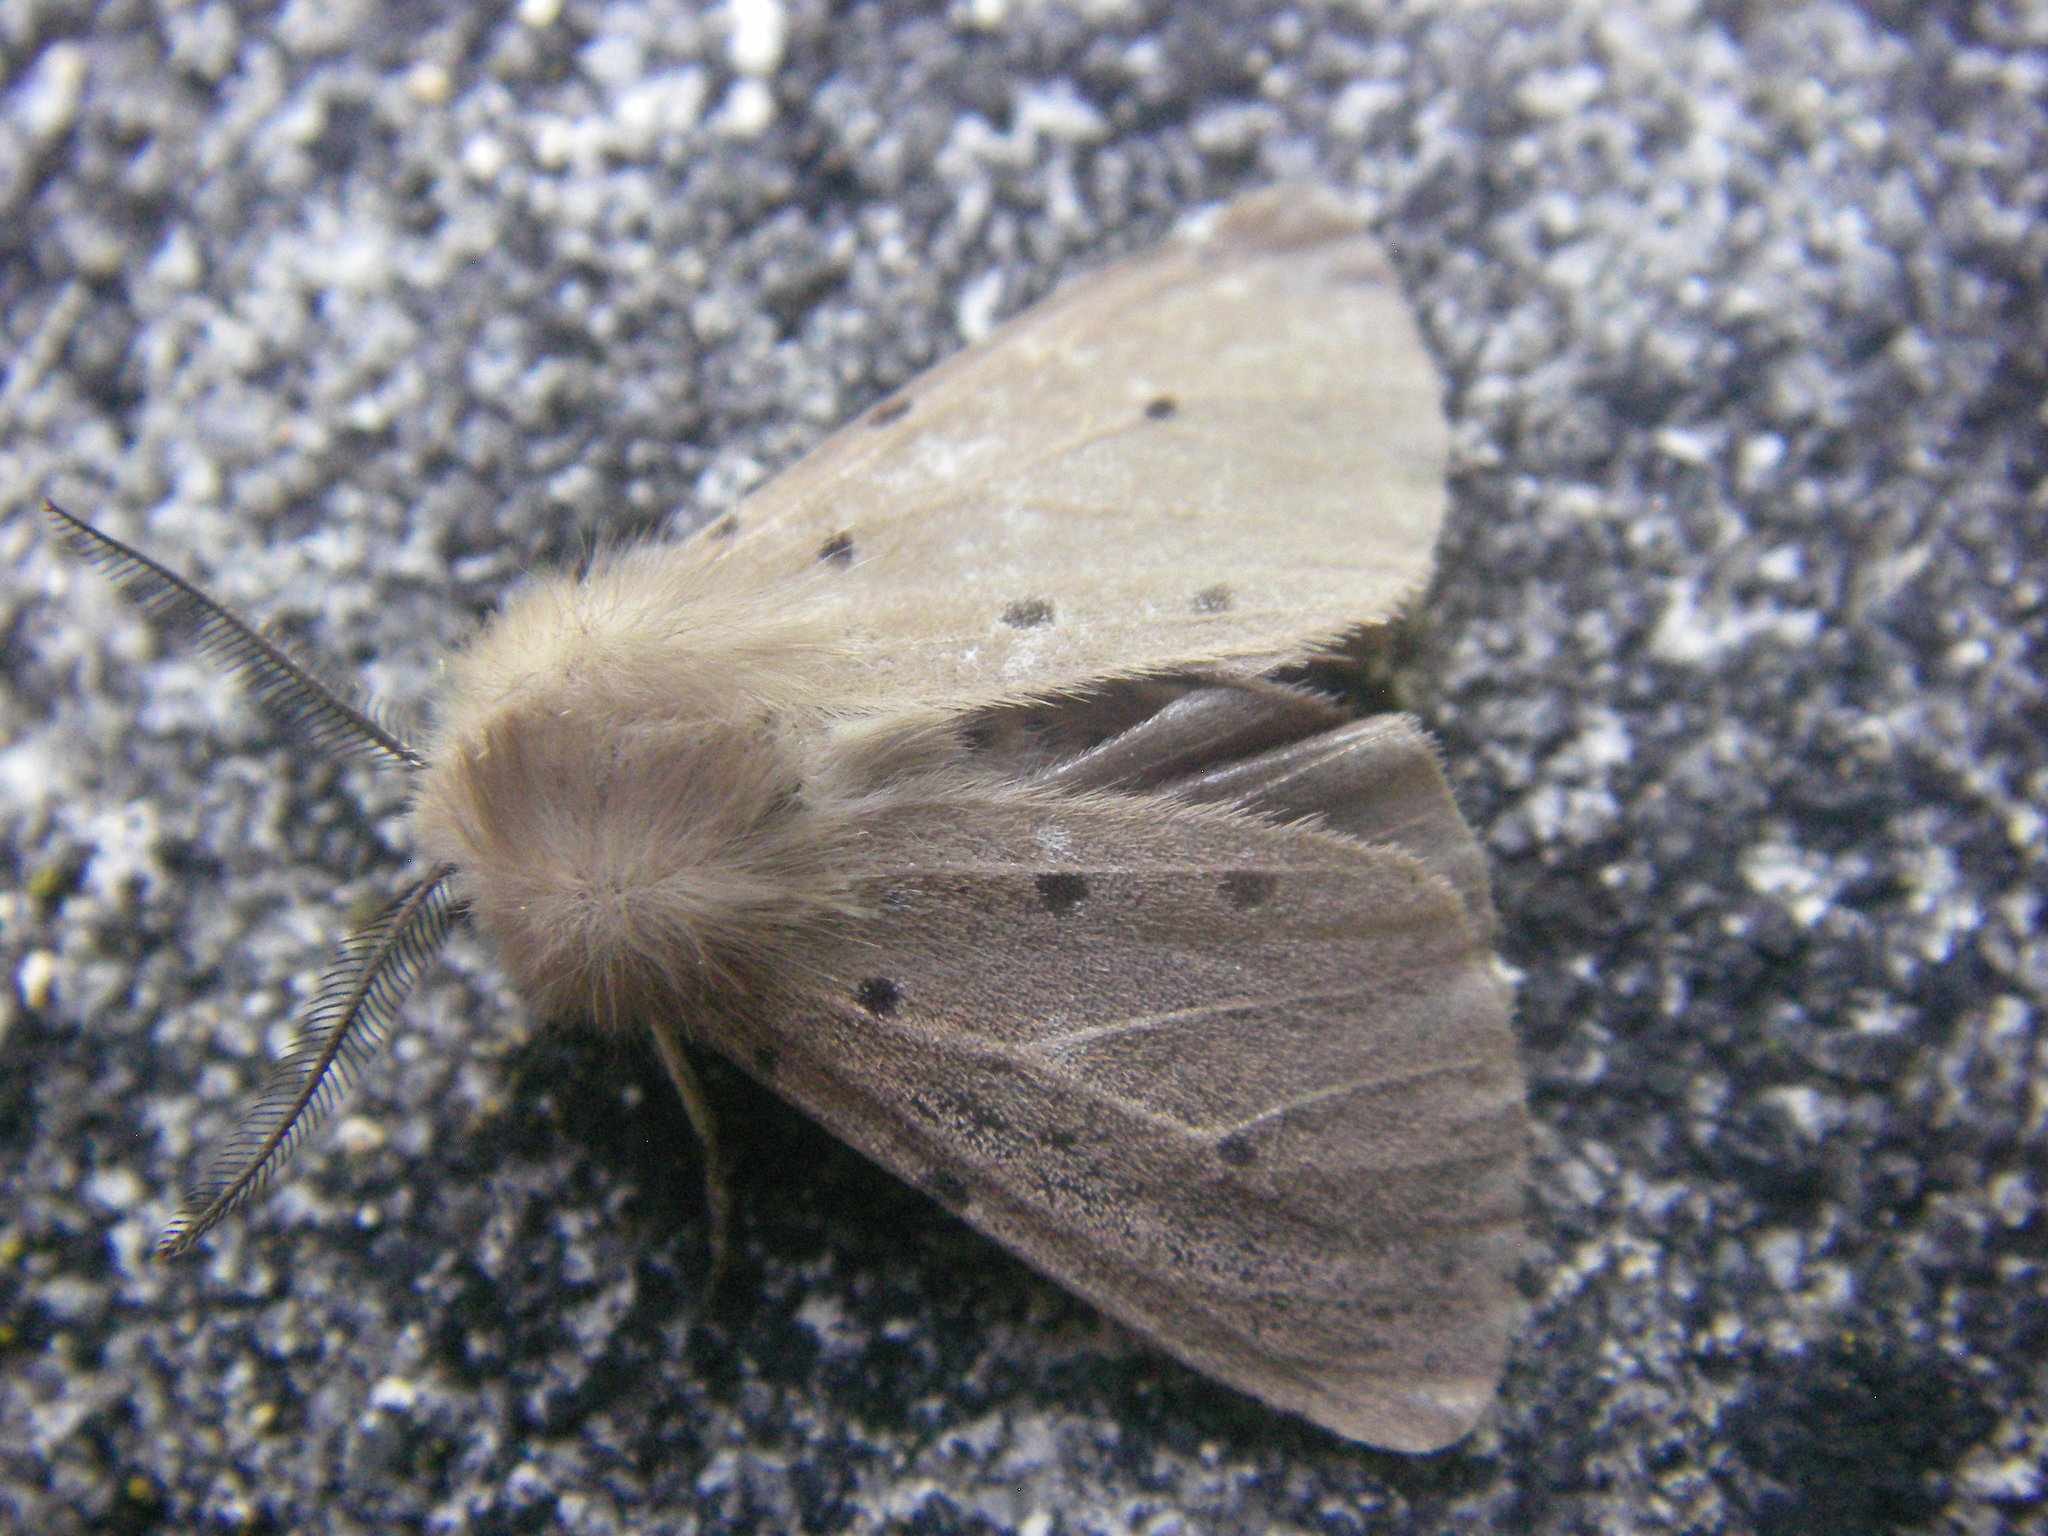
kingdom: Animalia
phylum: Arthropoda
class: Insecta
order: Lepidoptera
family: Erebidae
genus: Diaphora
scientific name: Diaphora mendica
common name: Muslin moth
